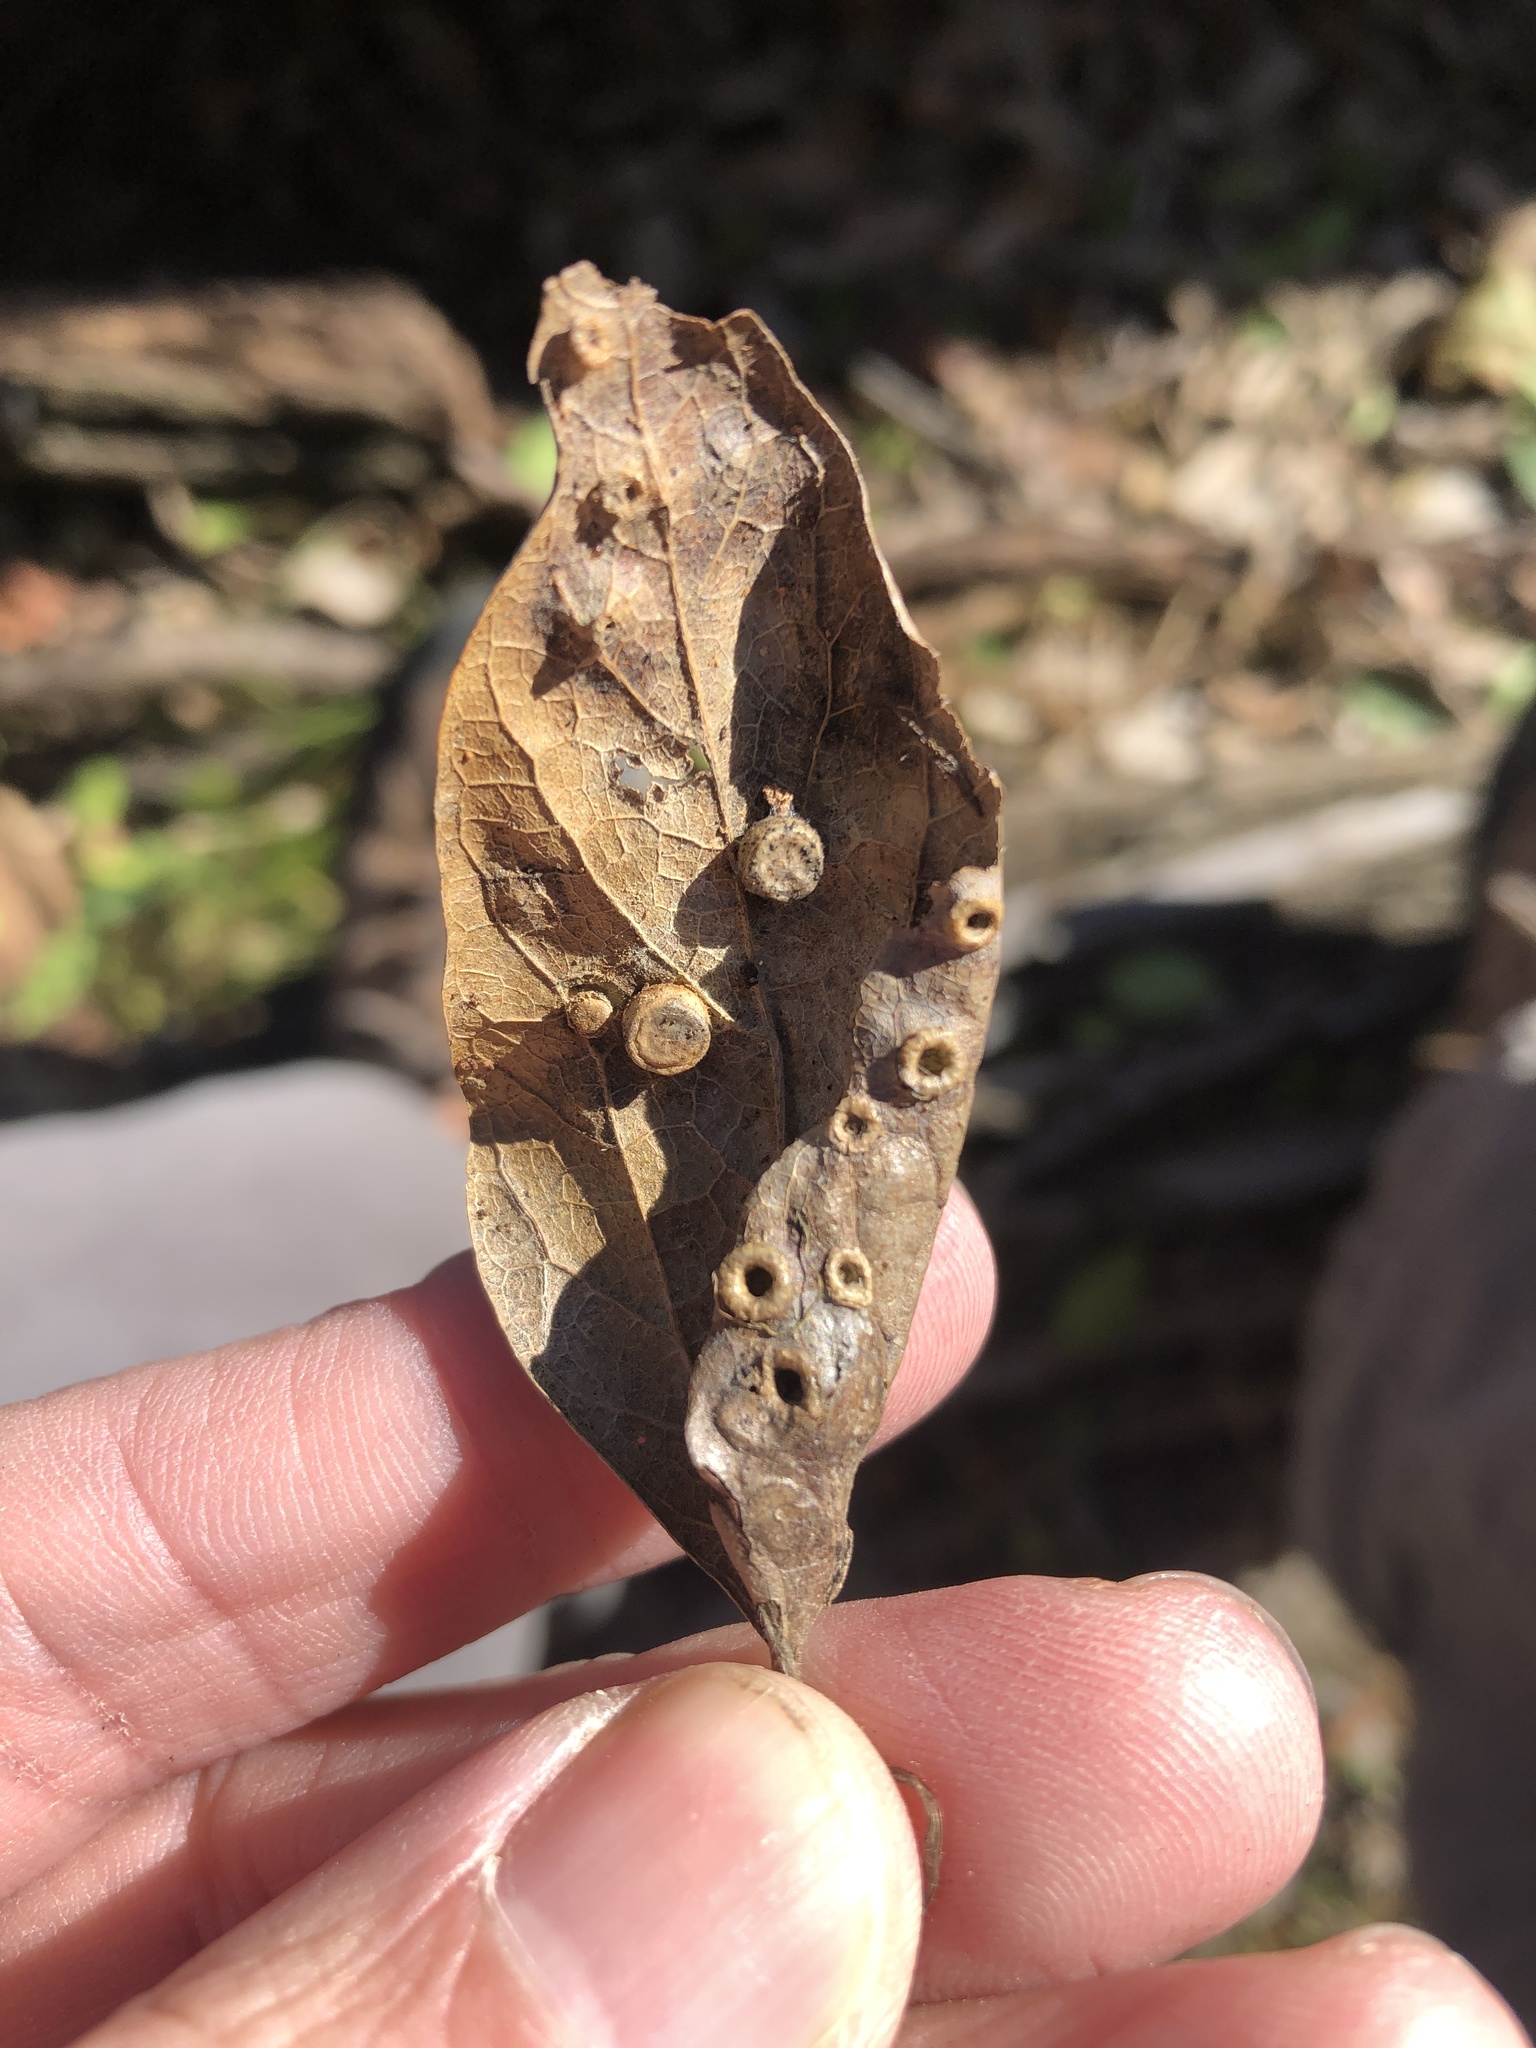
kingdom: Animalia
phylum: Arthropoda
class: Insecta
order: Hemiptera
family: Aphalaridae
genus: Pachypsylla
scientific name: Pachypsylla celtidismamma
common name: Hackberry nipplegall psyllid
